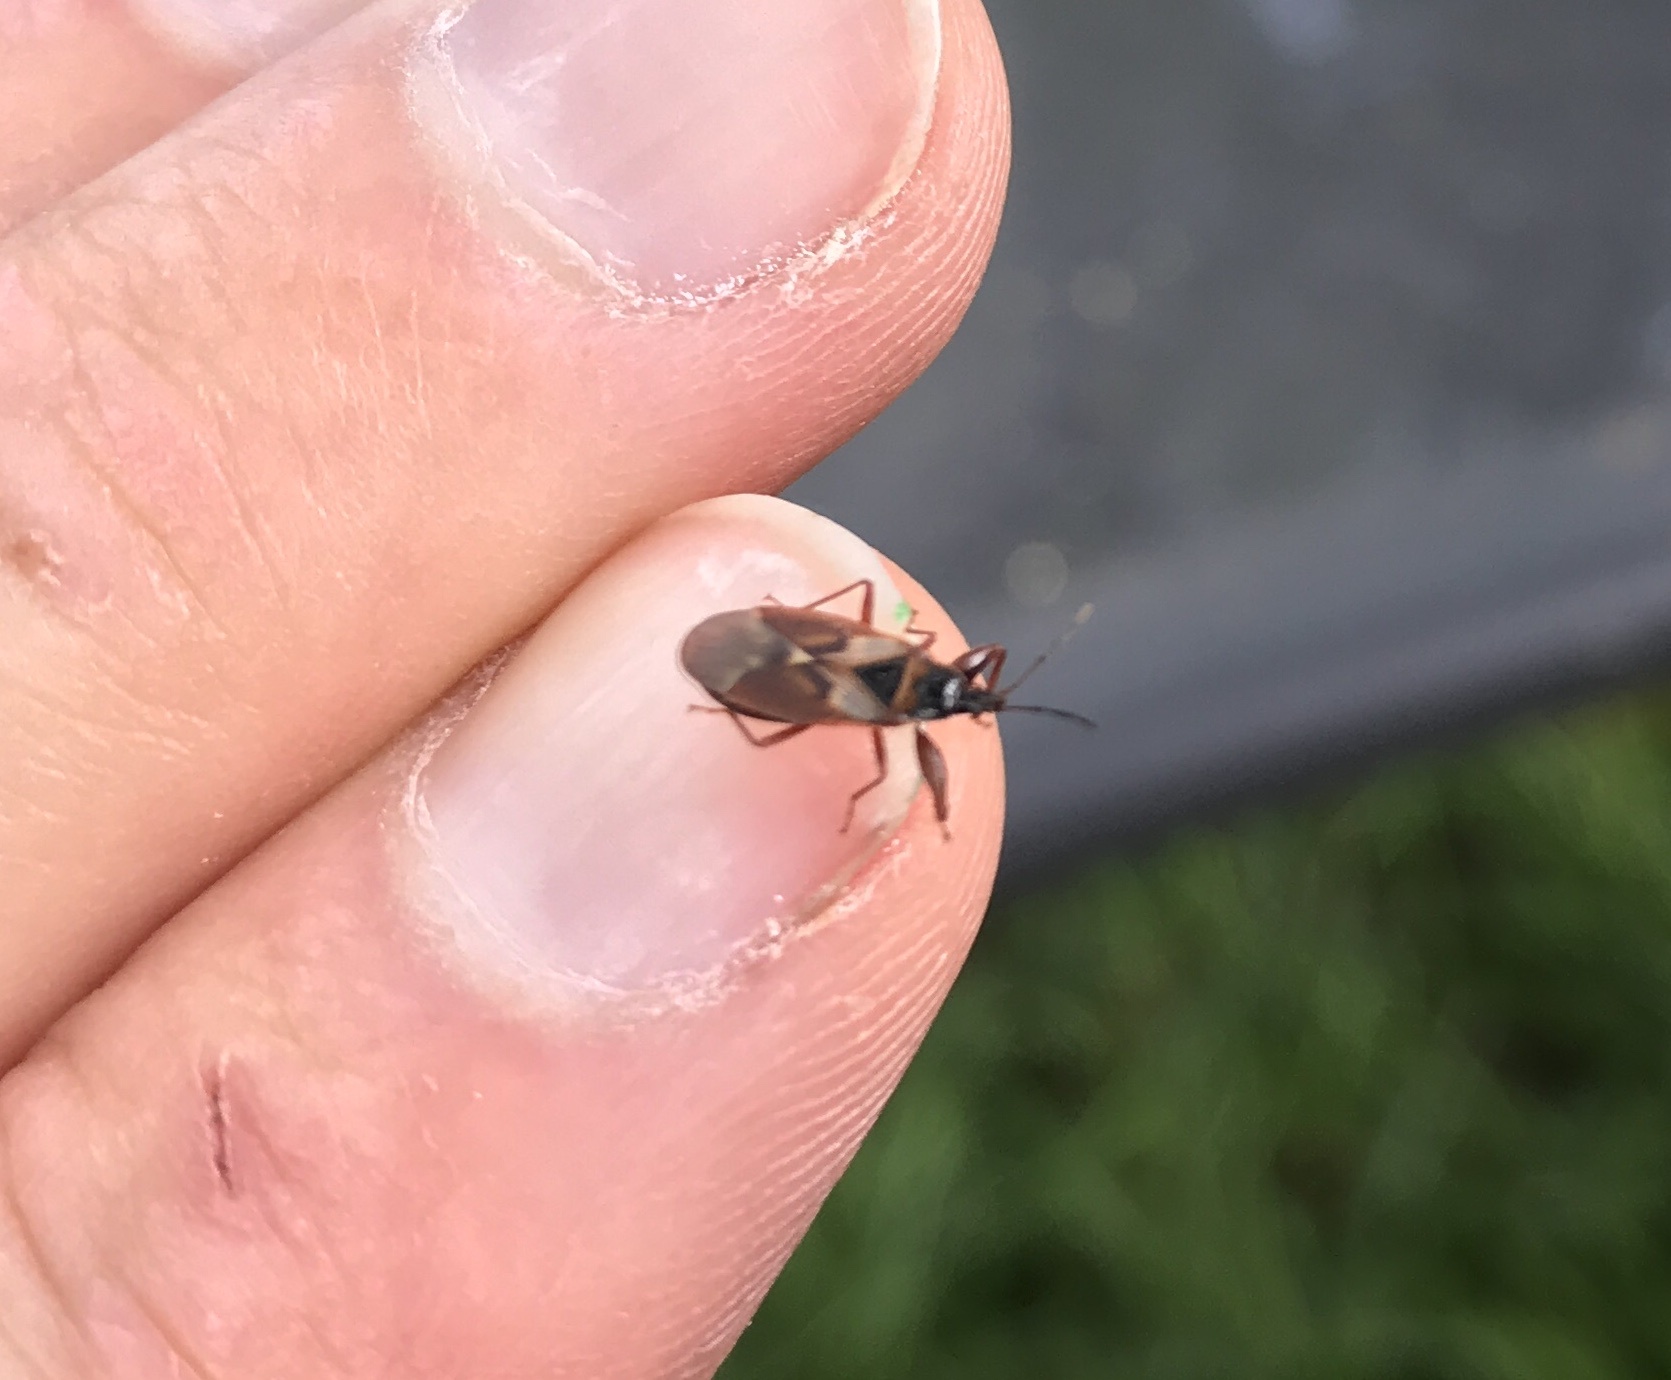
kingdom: Animalia
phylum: Arthropoda
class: Insecta
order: Hemiptera
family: Rhyparochromidae
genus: Gastrodes
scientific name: Gastrodes abietum
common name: Spruce cone bug
